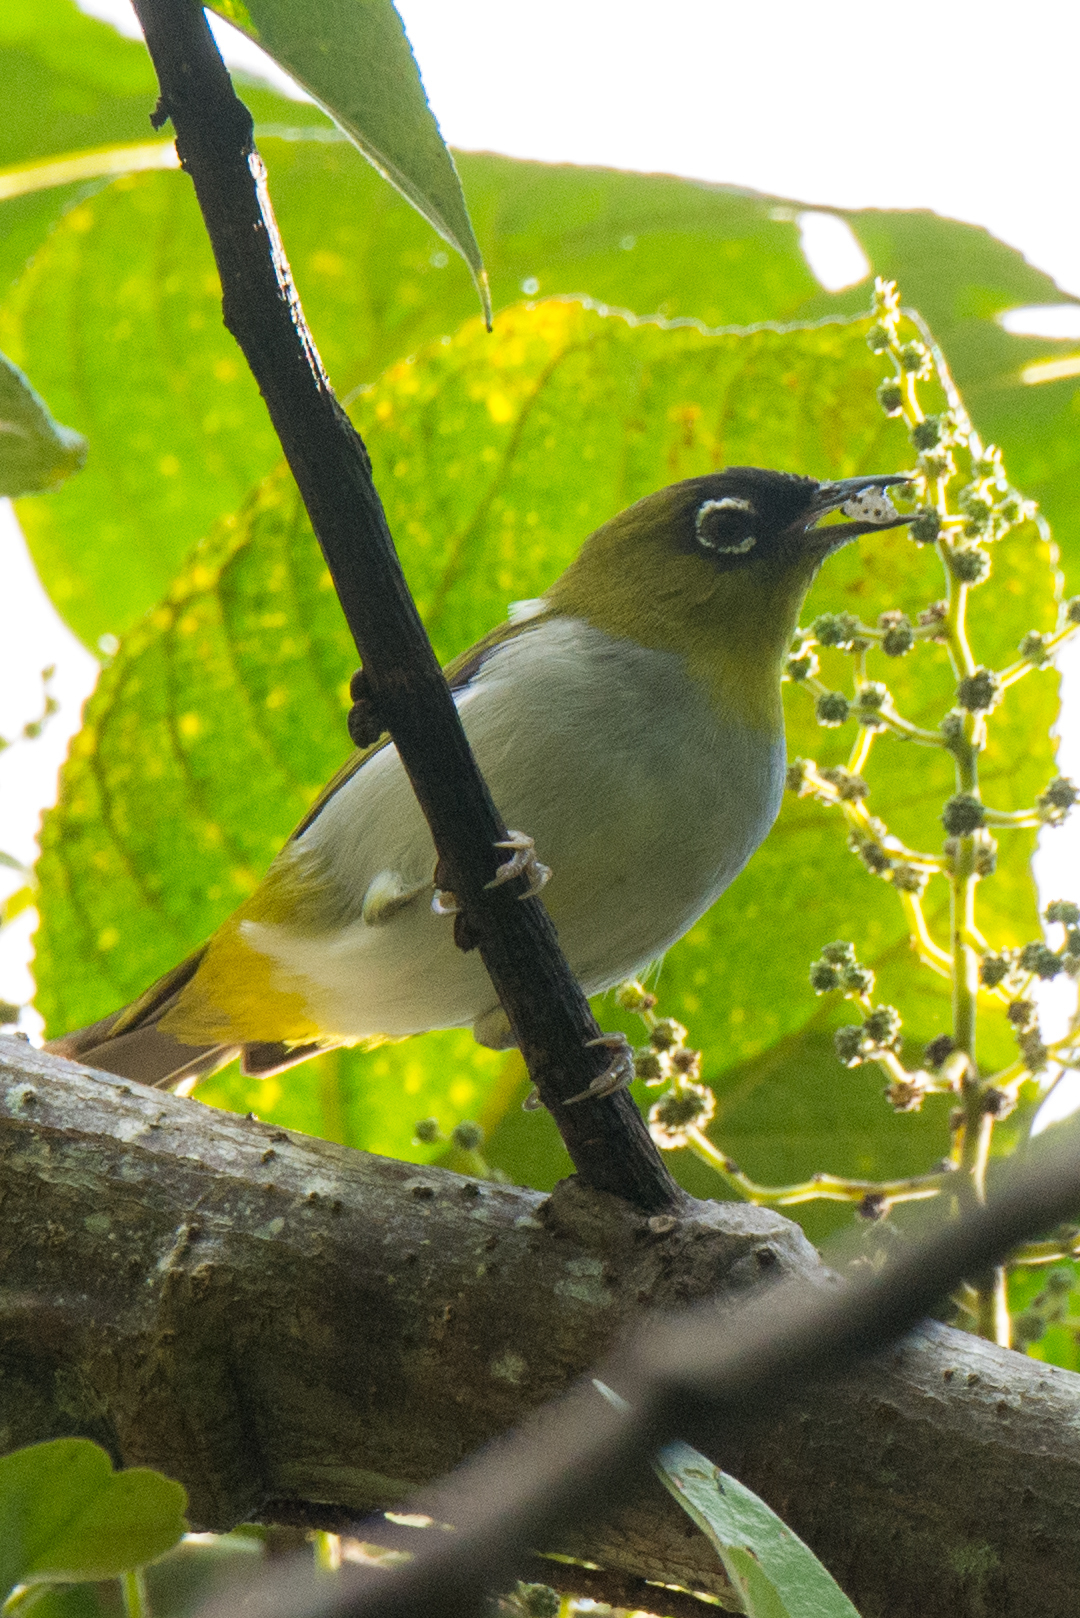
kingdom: Animalia
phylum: Chordata
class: Aves
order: Passeriformes
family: Zosteropidae
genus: Zosterops
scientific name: Zosterops atrifrons
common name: Black-crowned white-eye
